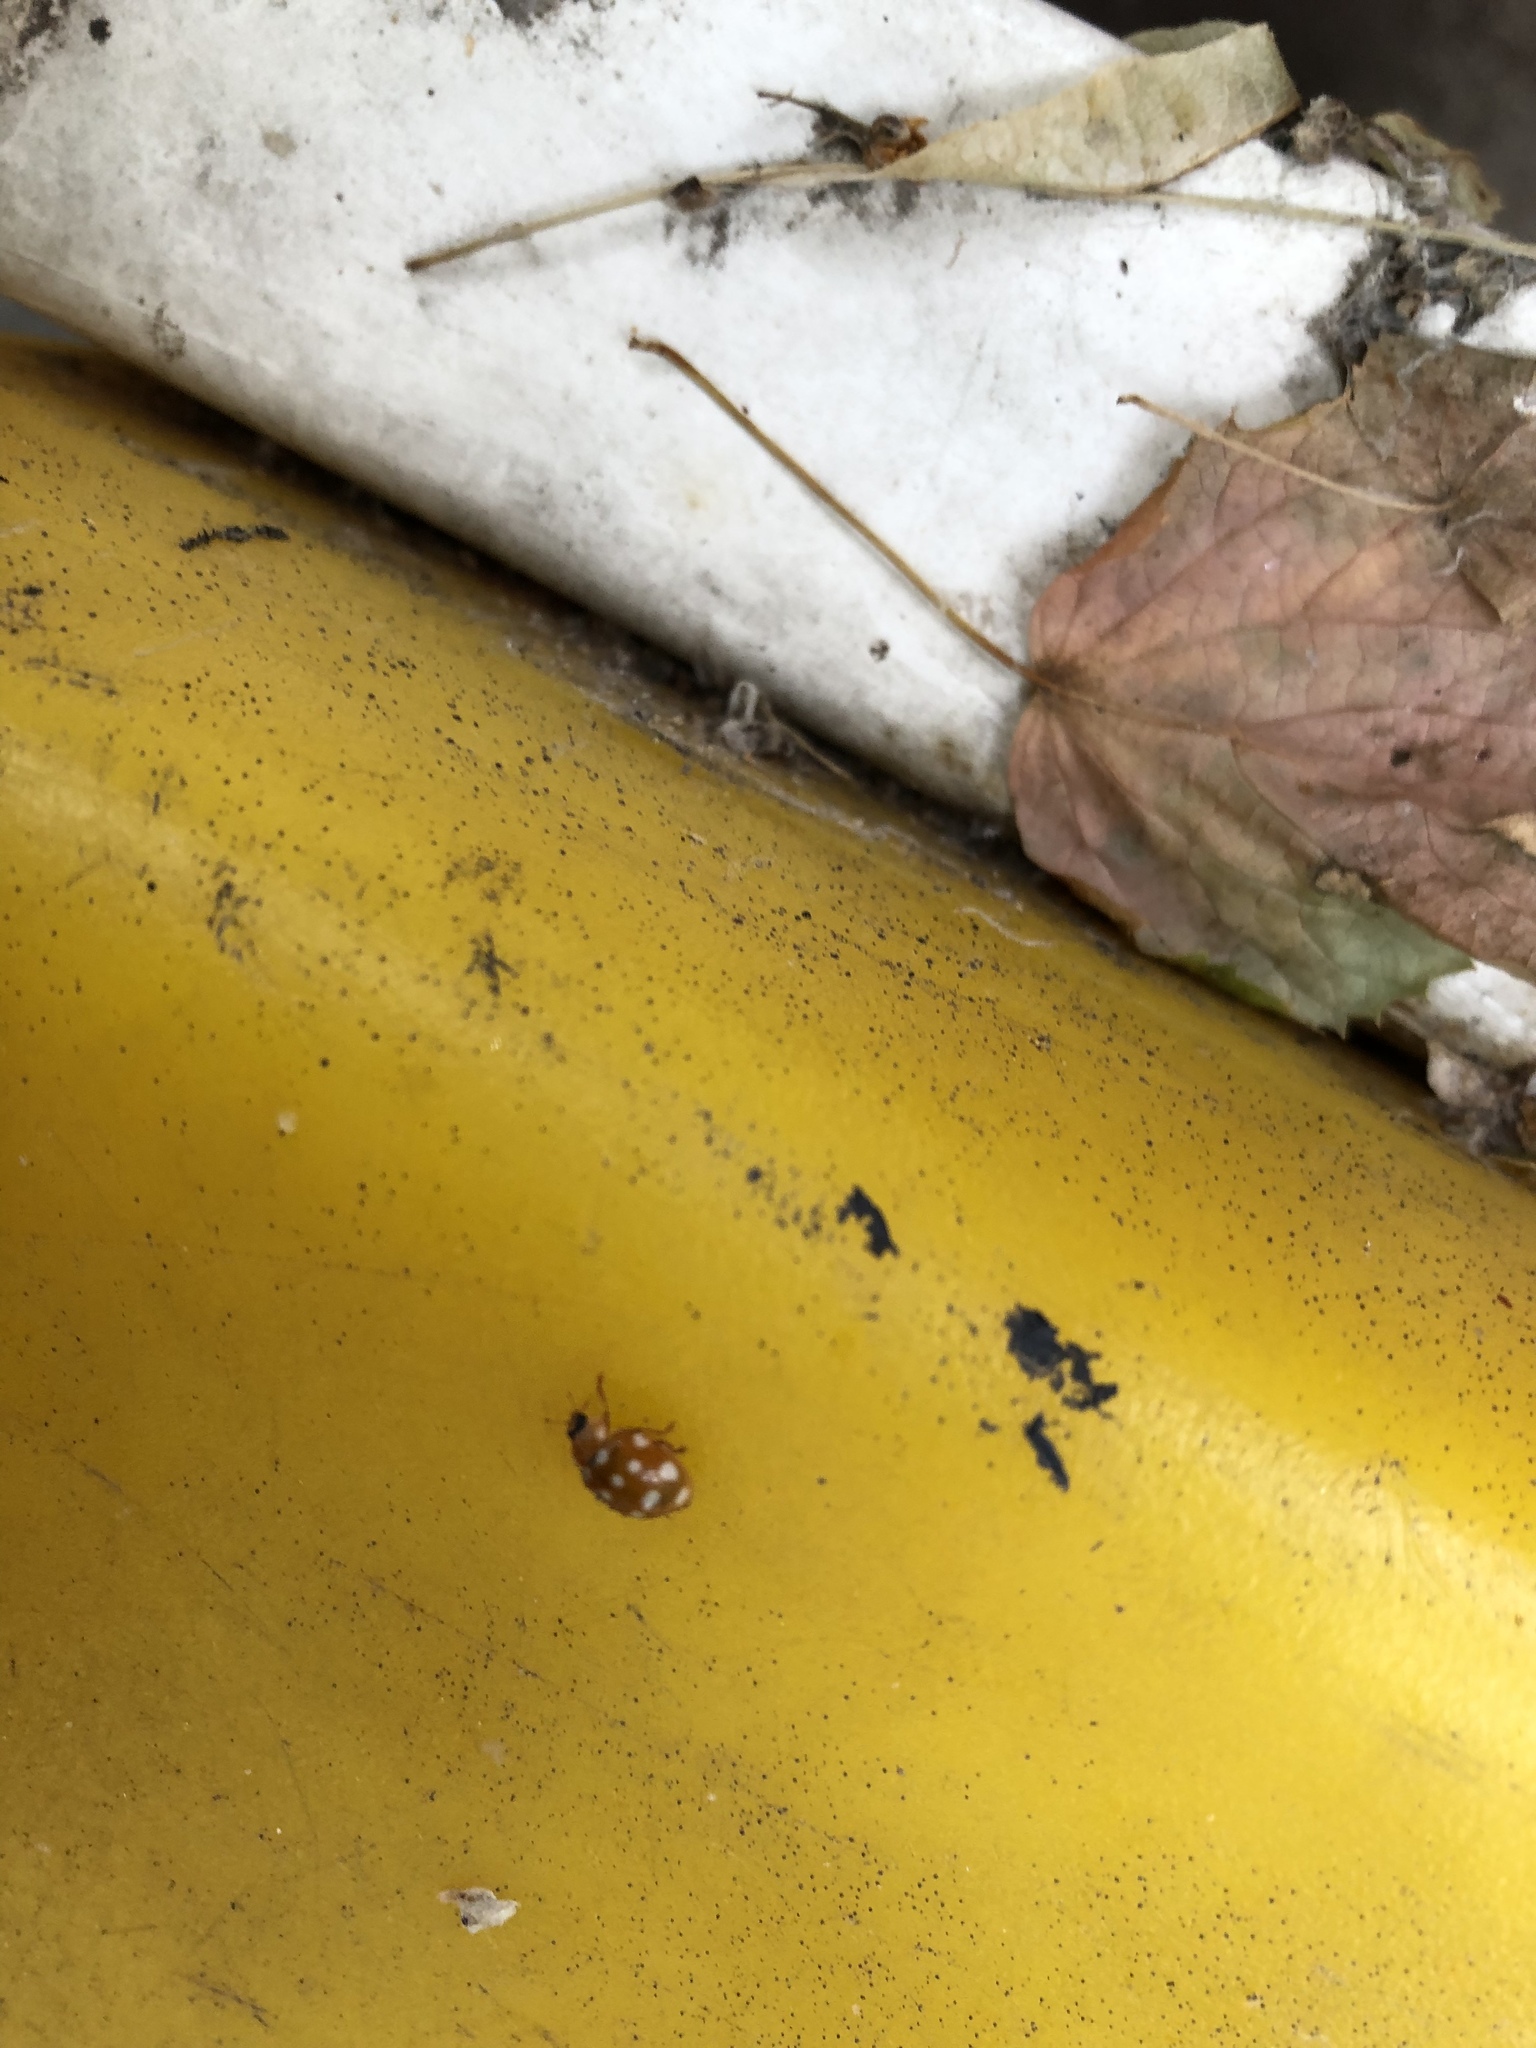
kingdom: Animalia
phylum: Arthropoda
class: Insecta
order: Coleoptera
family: Coccinellidae
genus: Calvia
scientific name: Calvia quatuordecimguttata
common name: Cream-spot ladybird
